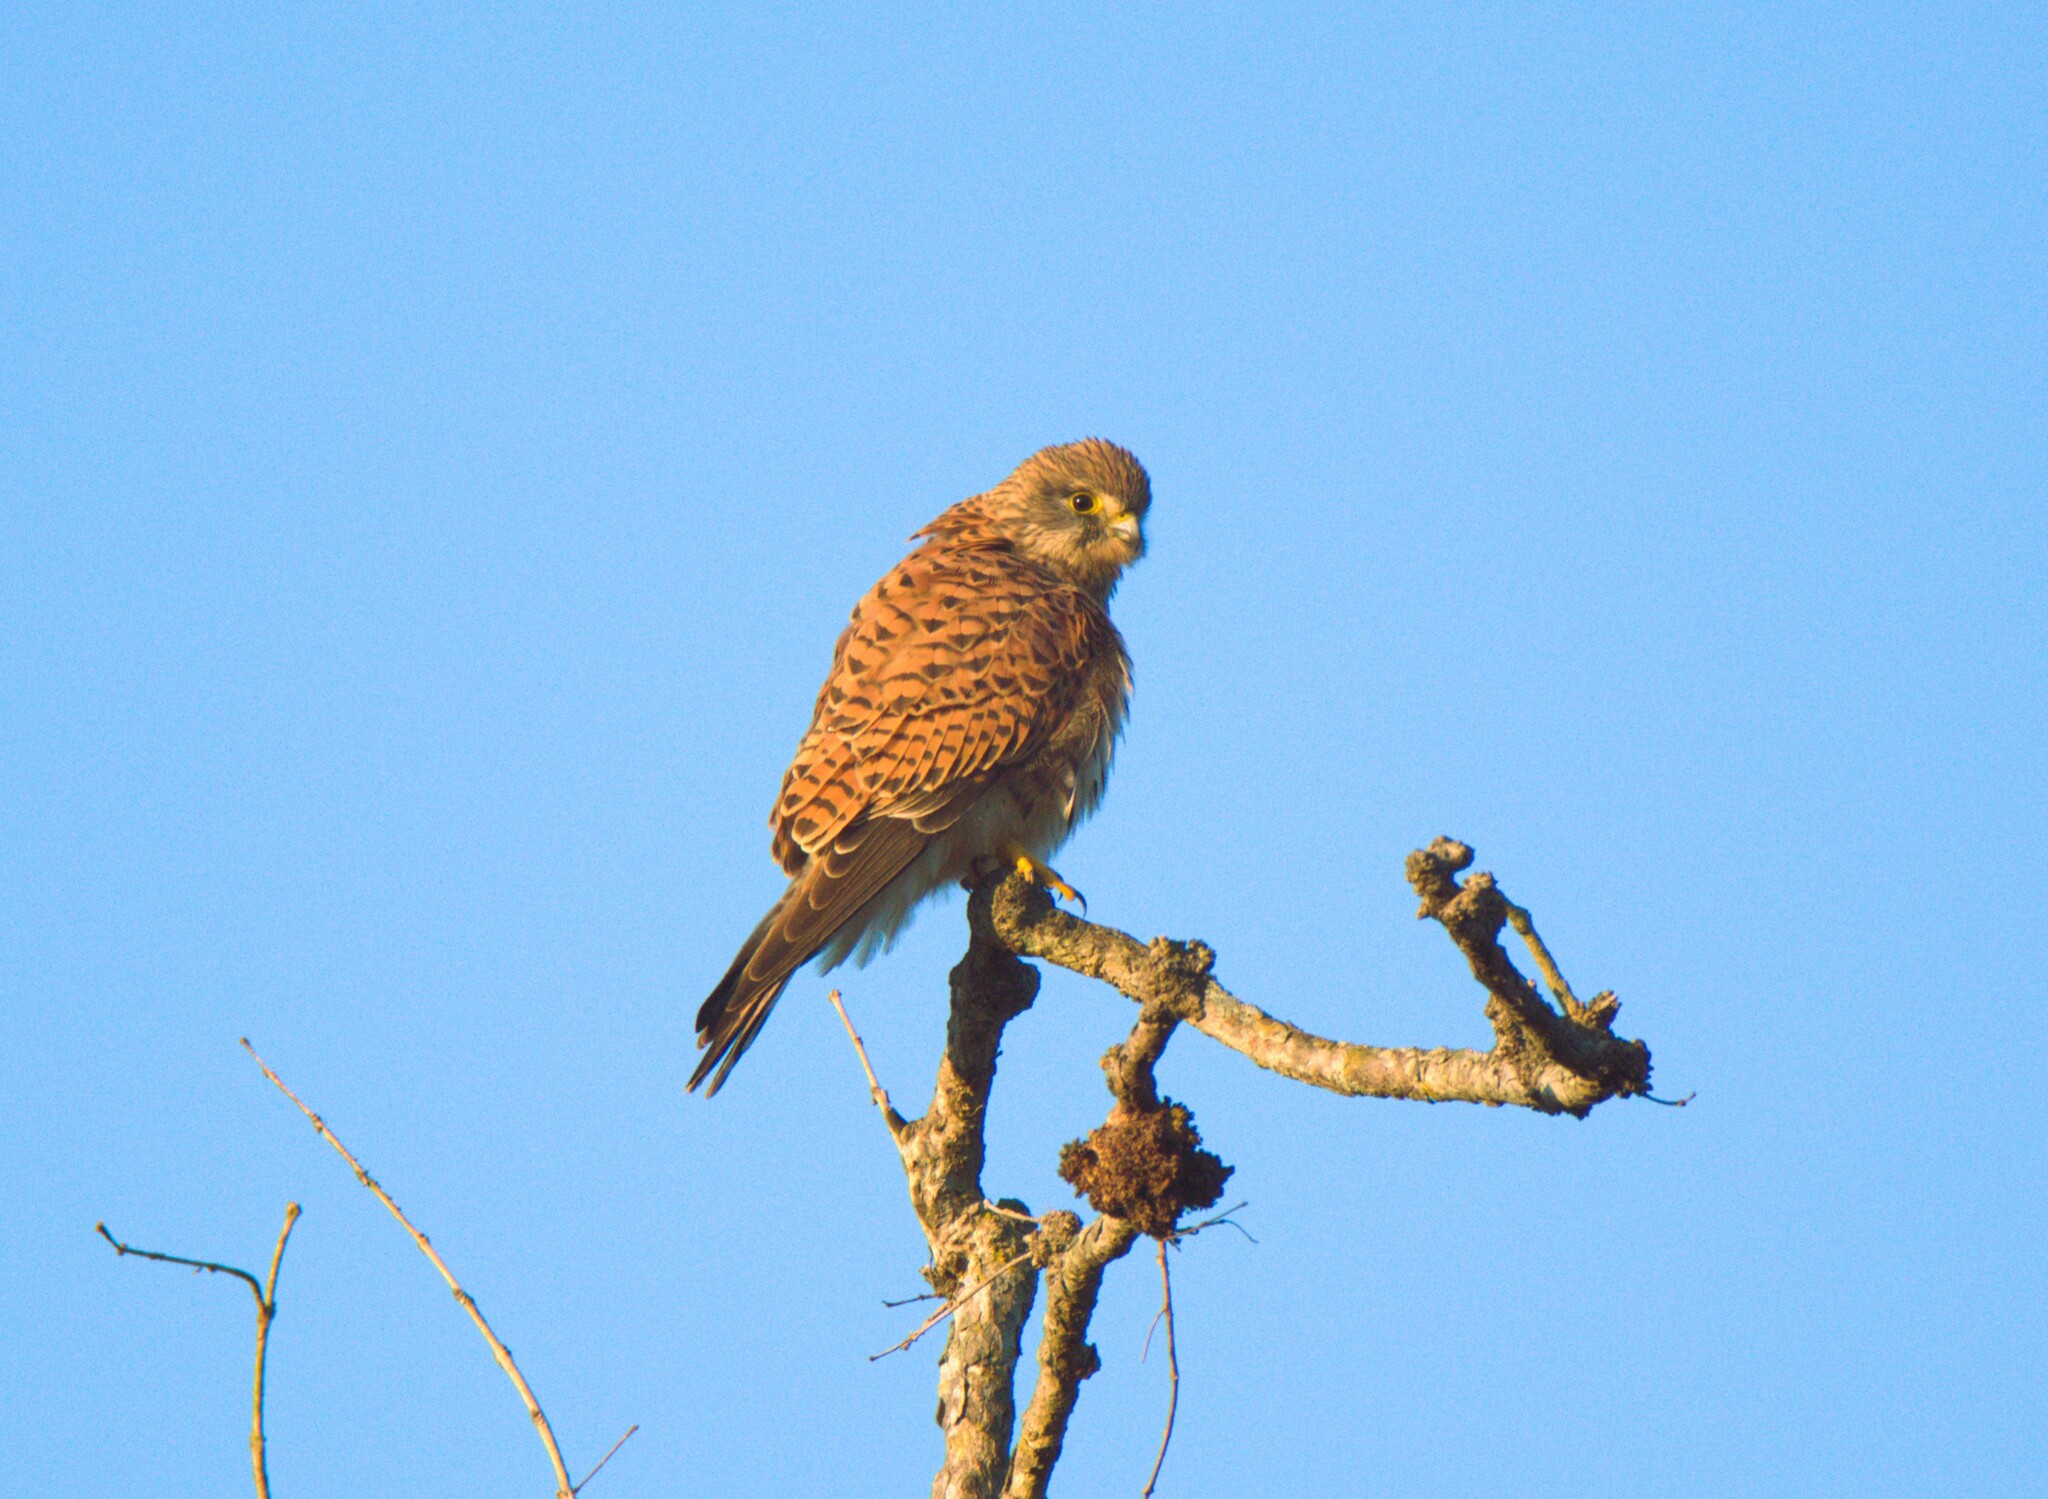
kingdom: Animalia
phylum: Chordata
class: Aves
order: Falconiformes
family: Falconidae
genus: Falco
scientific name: Falco tinnunculus
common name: Common kestrel
